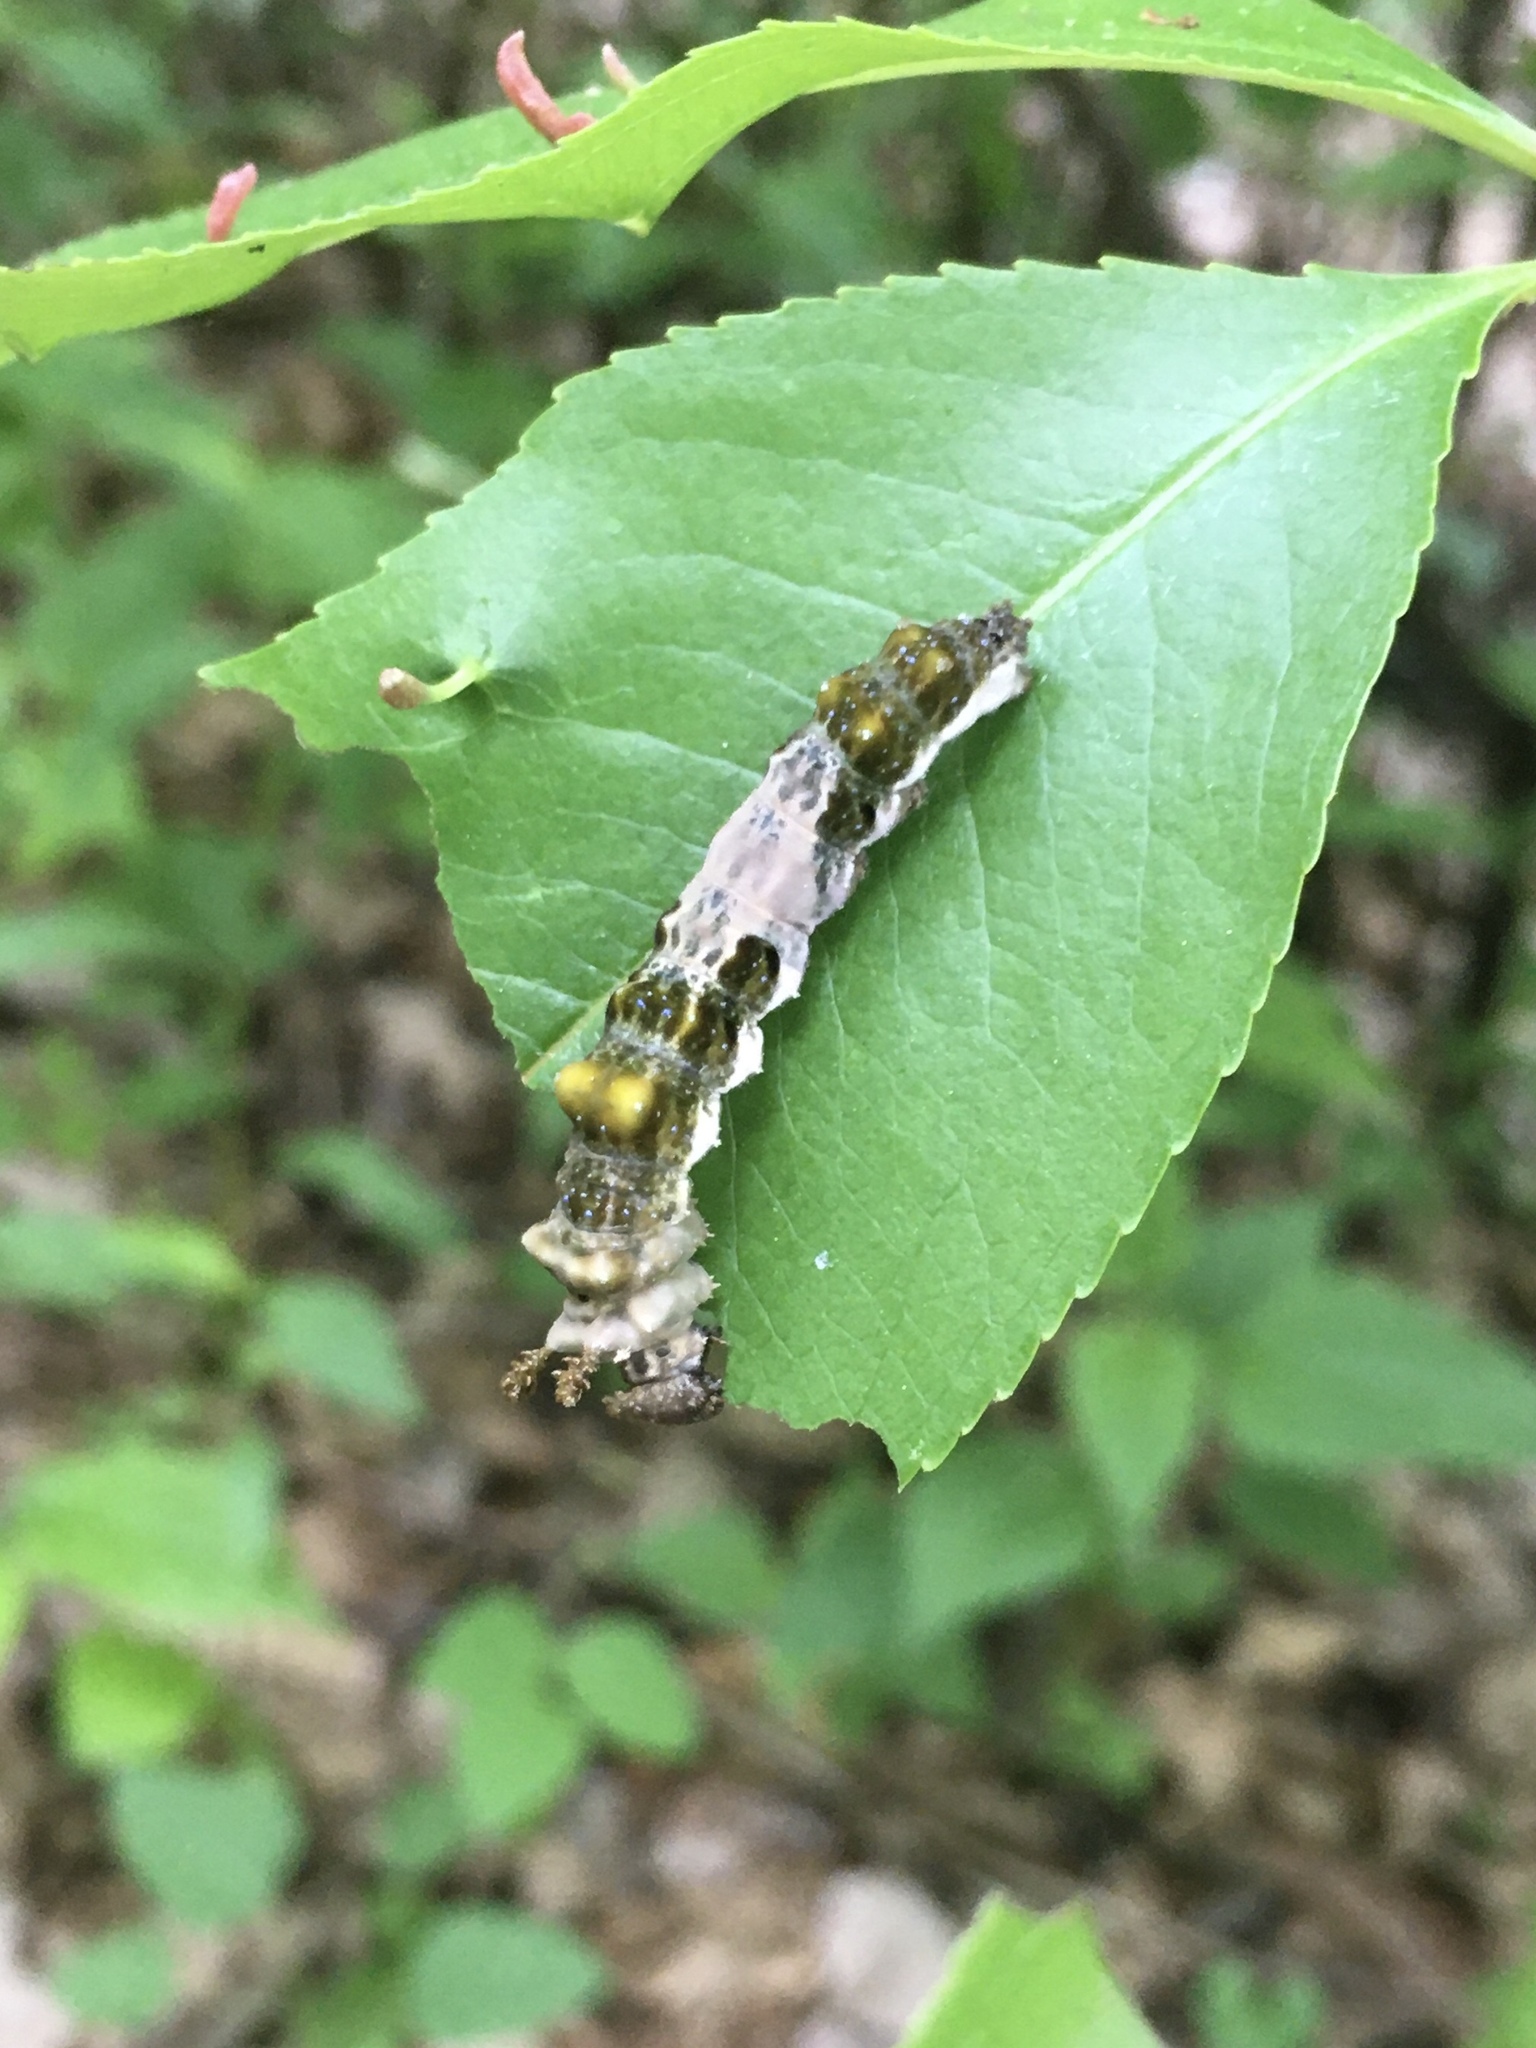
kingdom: Animalia
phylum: Arthropoda
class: Insecta
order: Lepidoptera
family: Nymphalidae
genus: Limenitis
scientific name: Limenitis arthemis
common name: Red-spotted admiral
